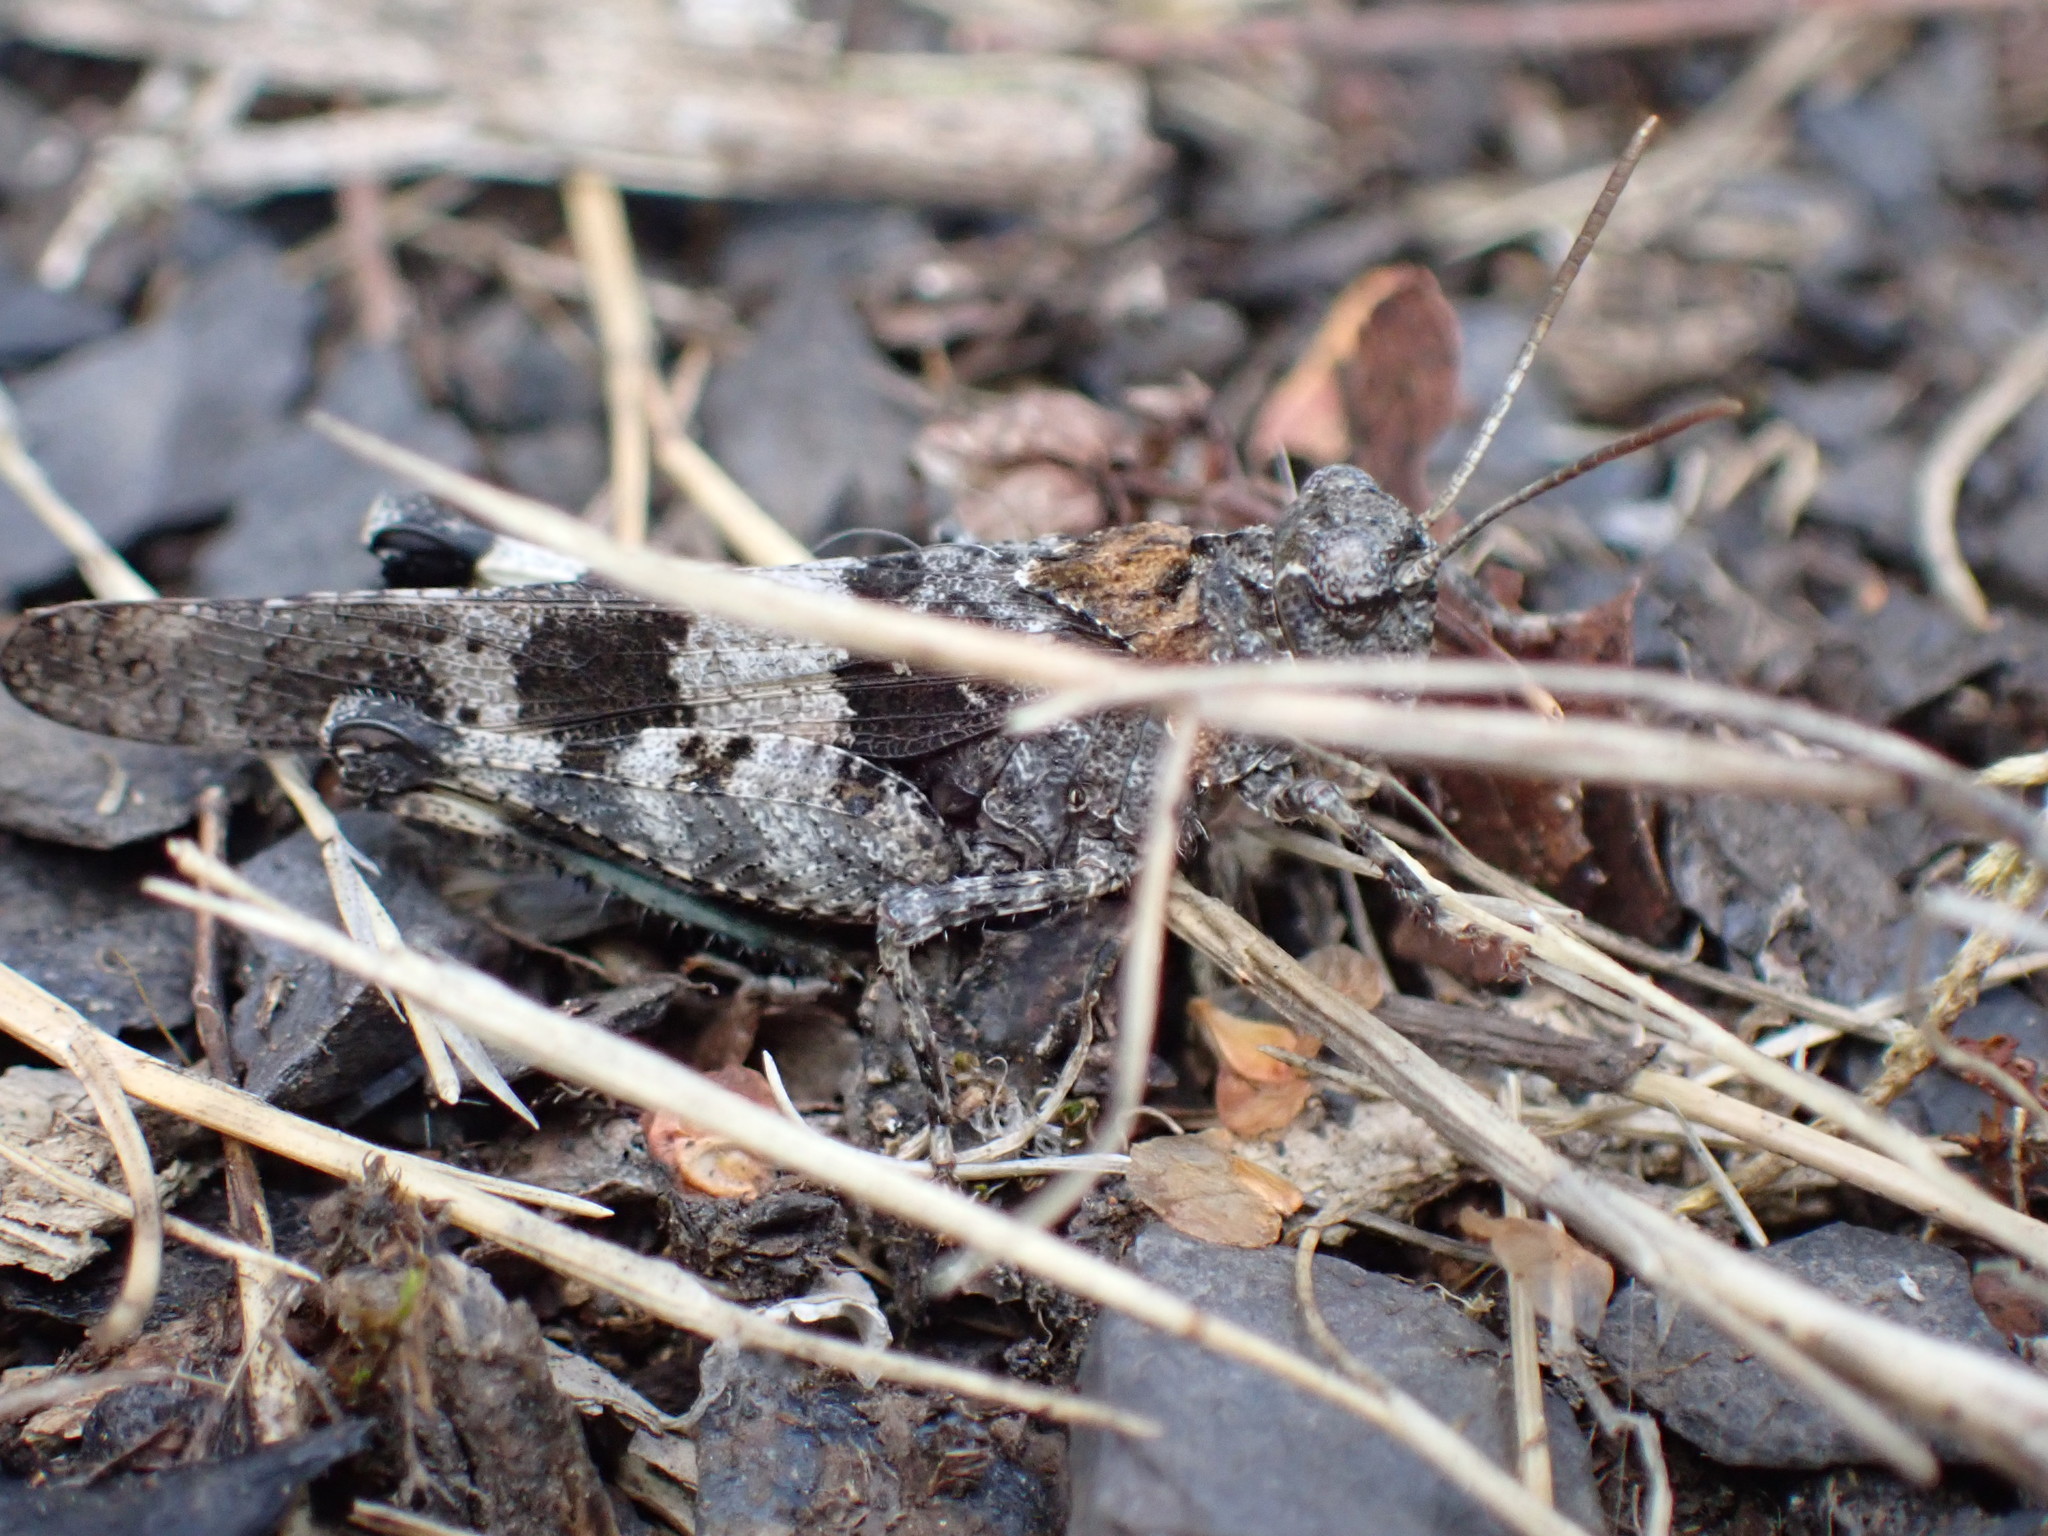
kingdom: Animalia
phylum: Arthropoda
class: Insecta
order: Orthoptera
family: Acrididae
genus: Oedipoda
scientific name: Oedipoda caerulescens
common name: Blue-winged grasshopper
